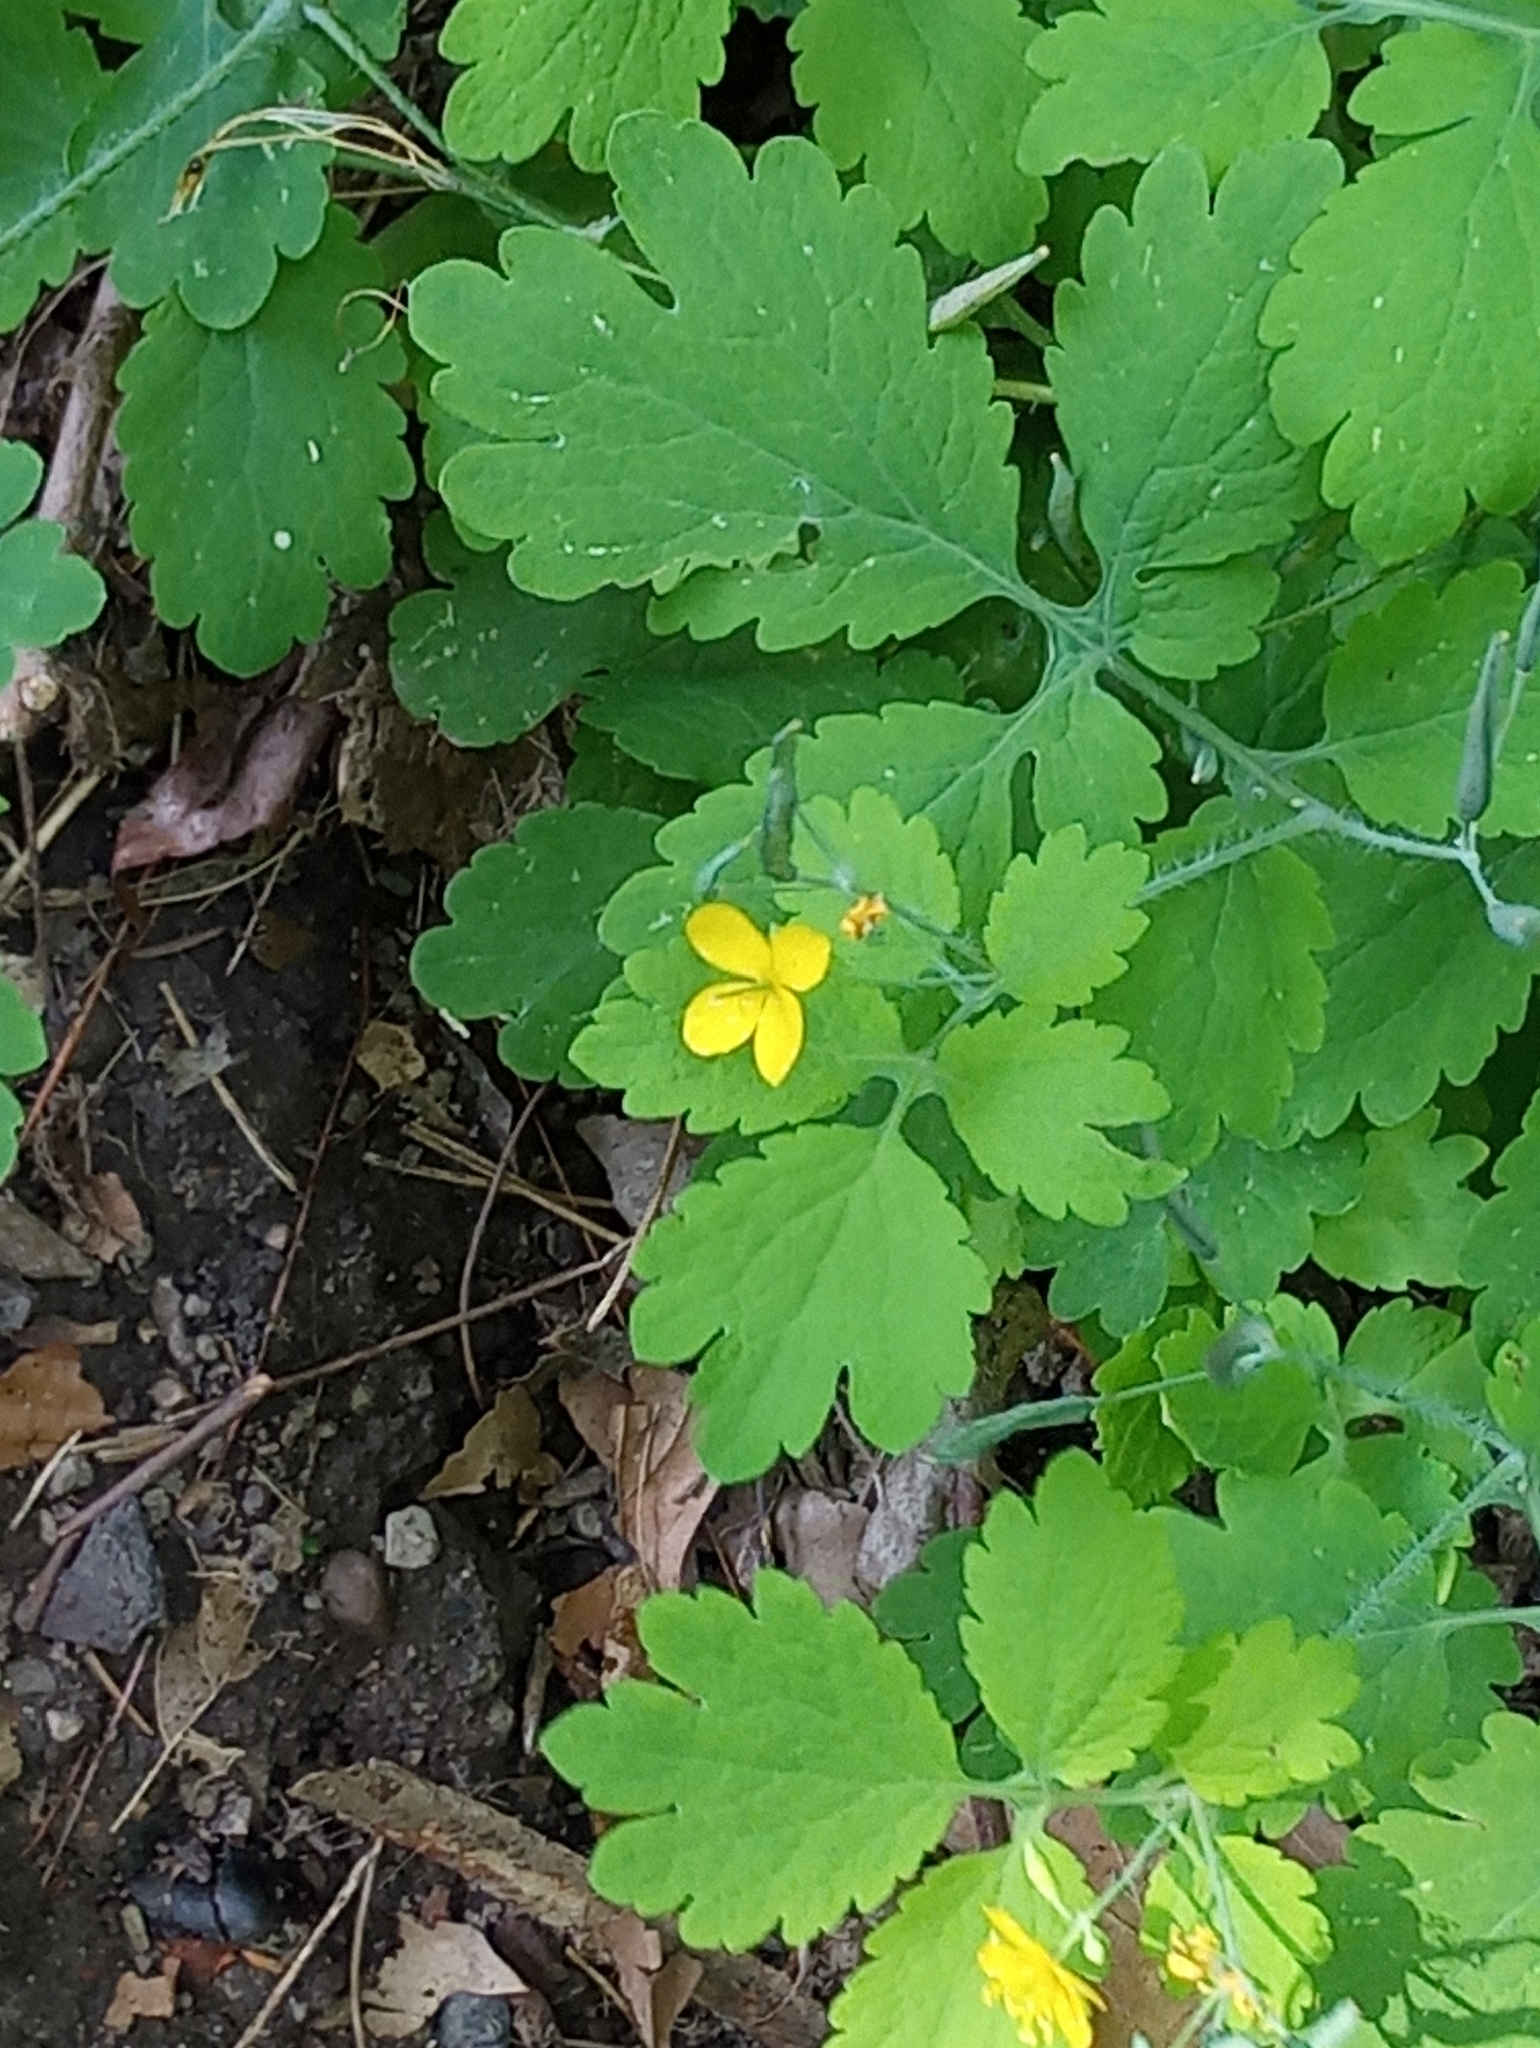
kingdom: Plantae
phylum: Tracheophyta
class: Magnoliopsida
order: Ranunculales
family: Papaveraceae
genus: Chelidonium
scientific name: Chelidonium majus
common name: Greater celandine
